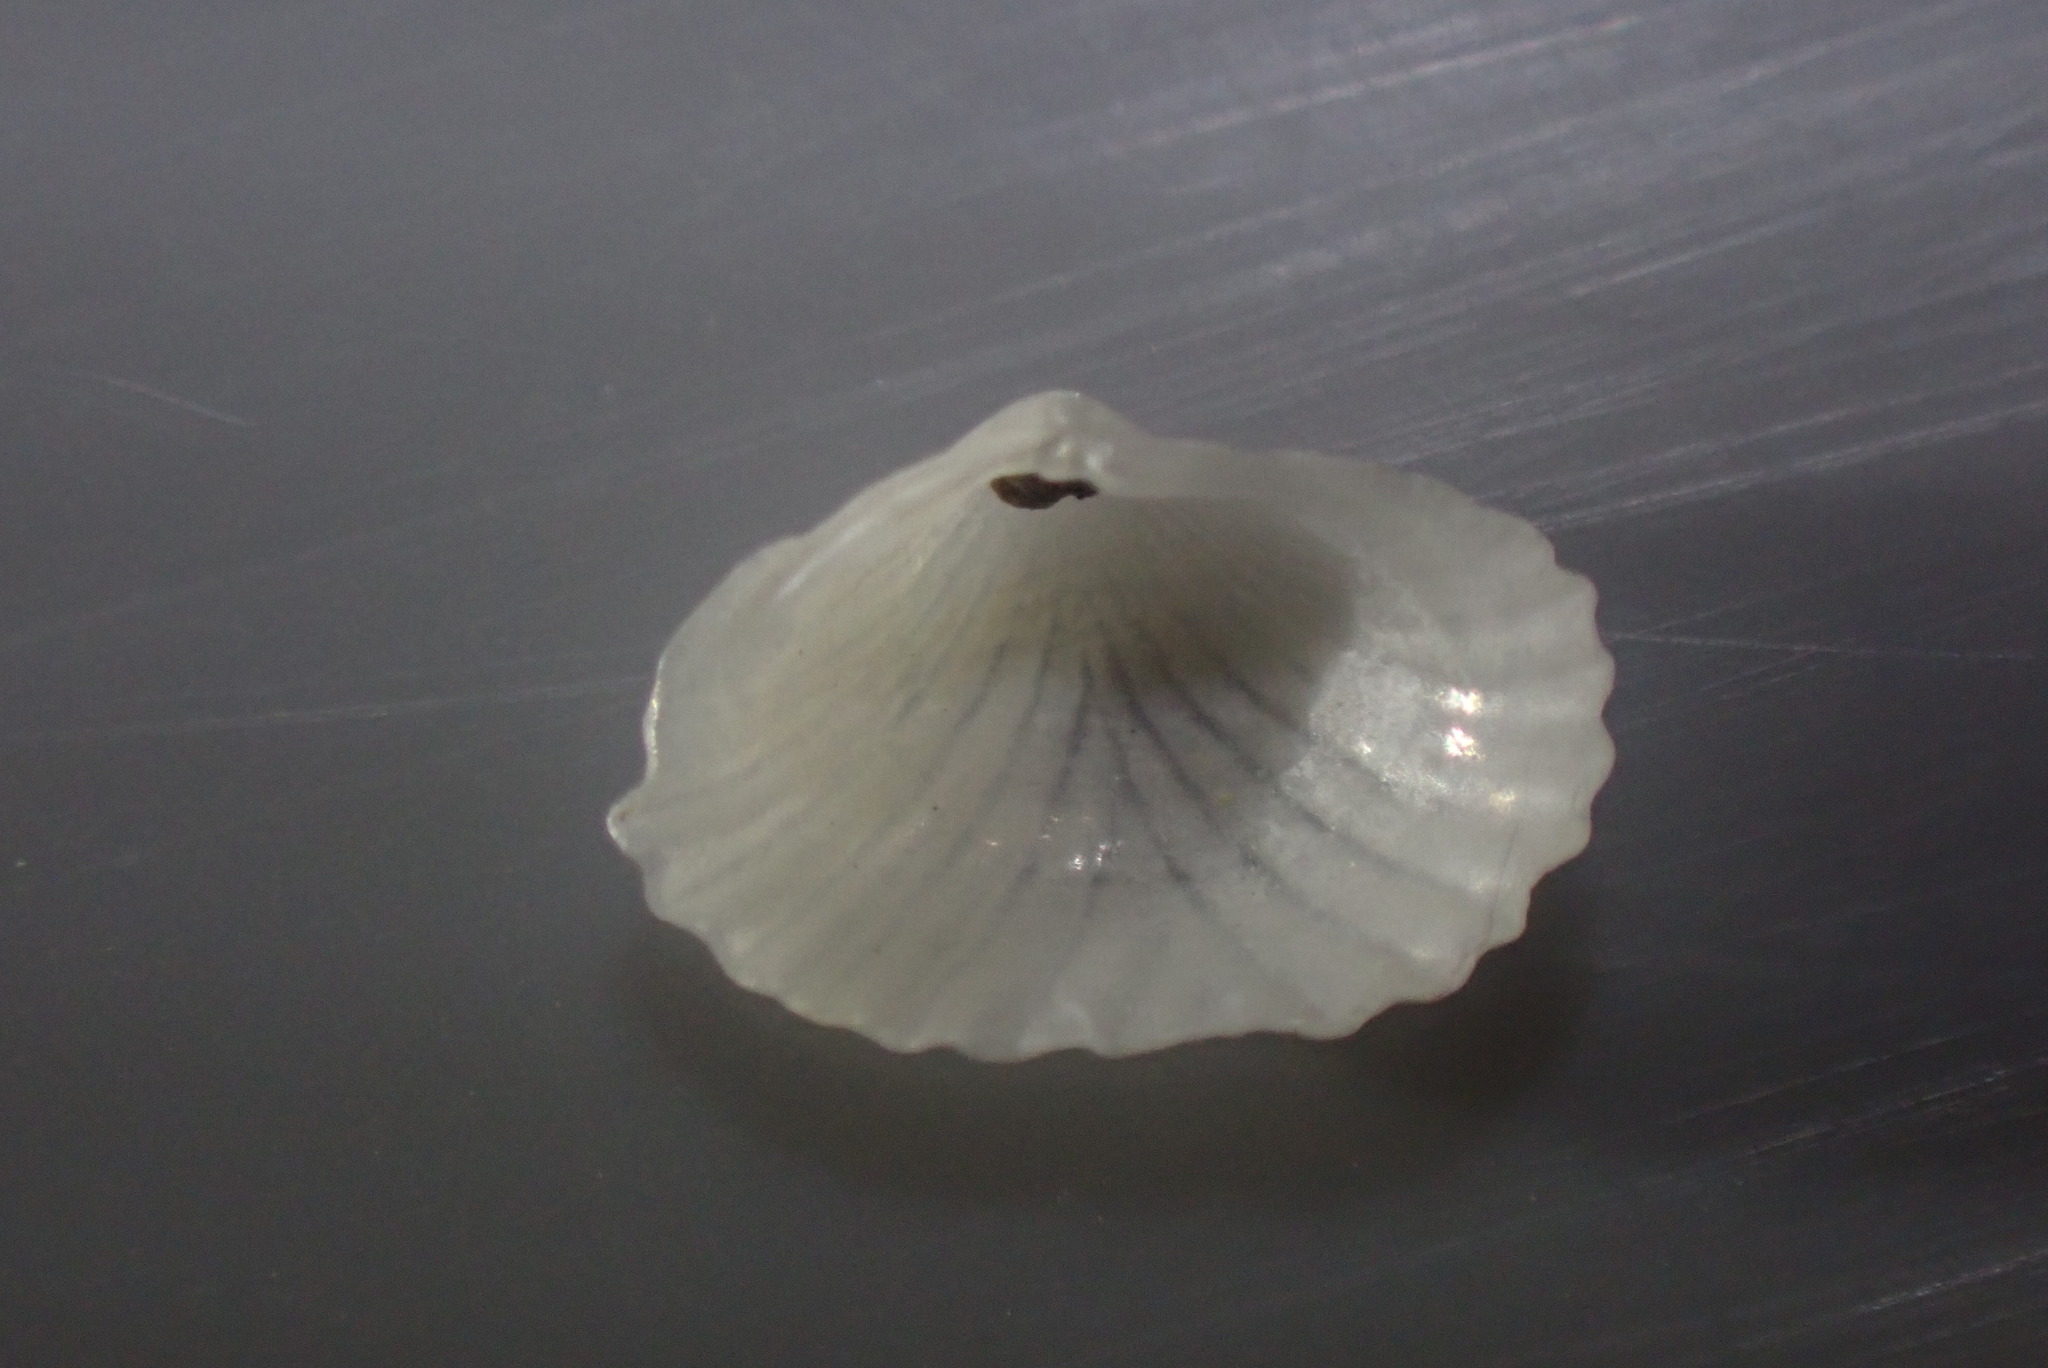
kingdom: Animalia
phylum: Mollusca
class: Bivalvia
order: Galeommatida
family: Lasaeidae
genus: Myllita
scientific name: Myllita stowei
